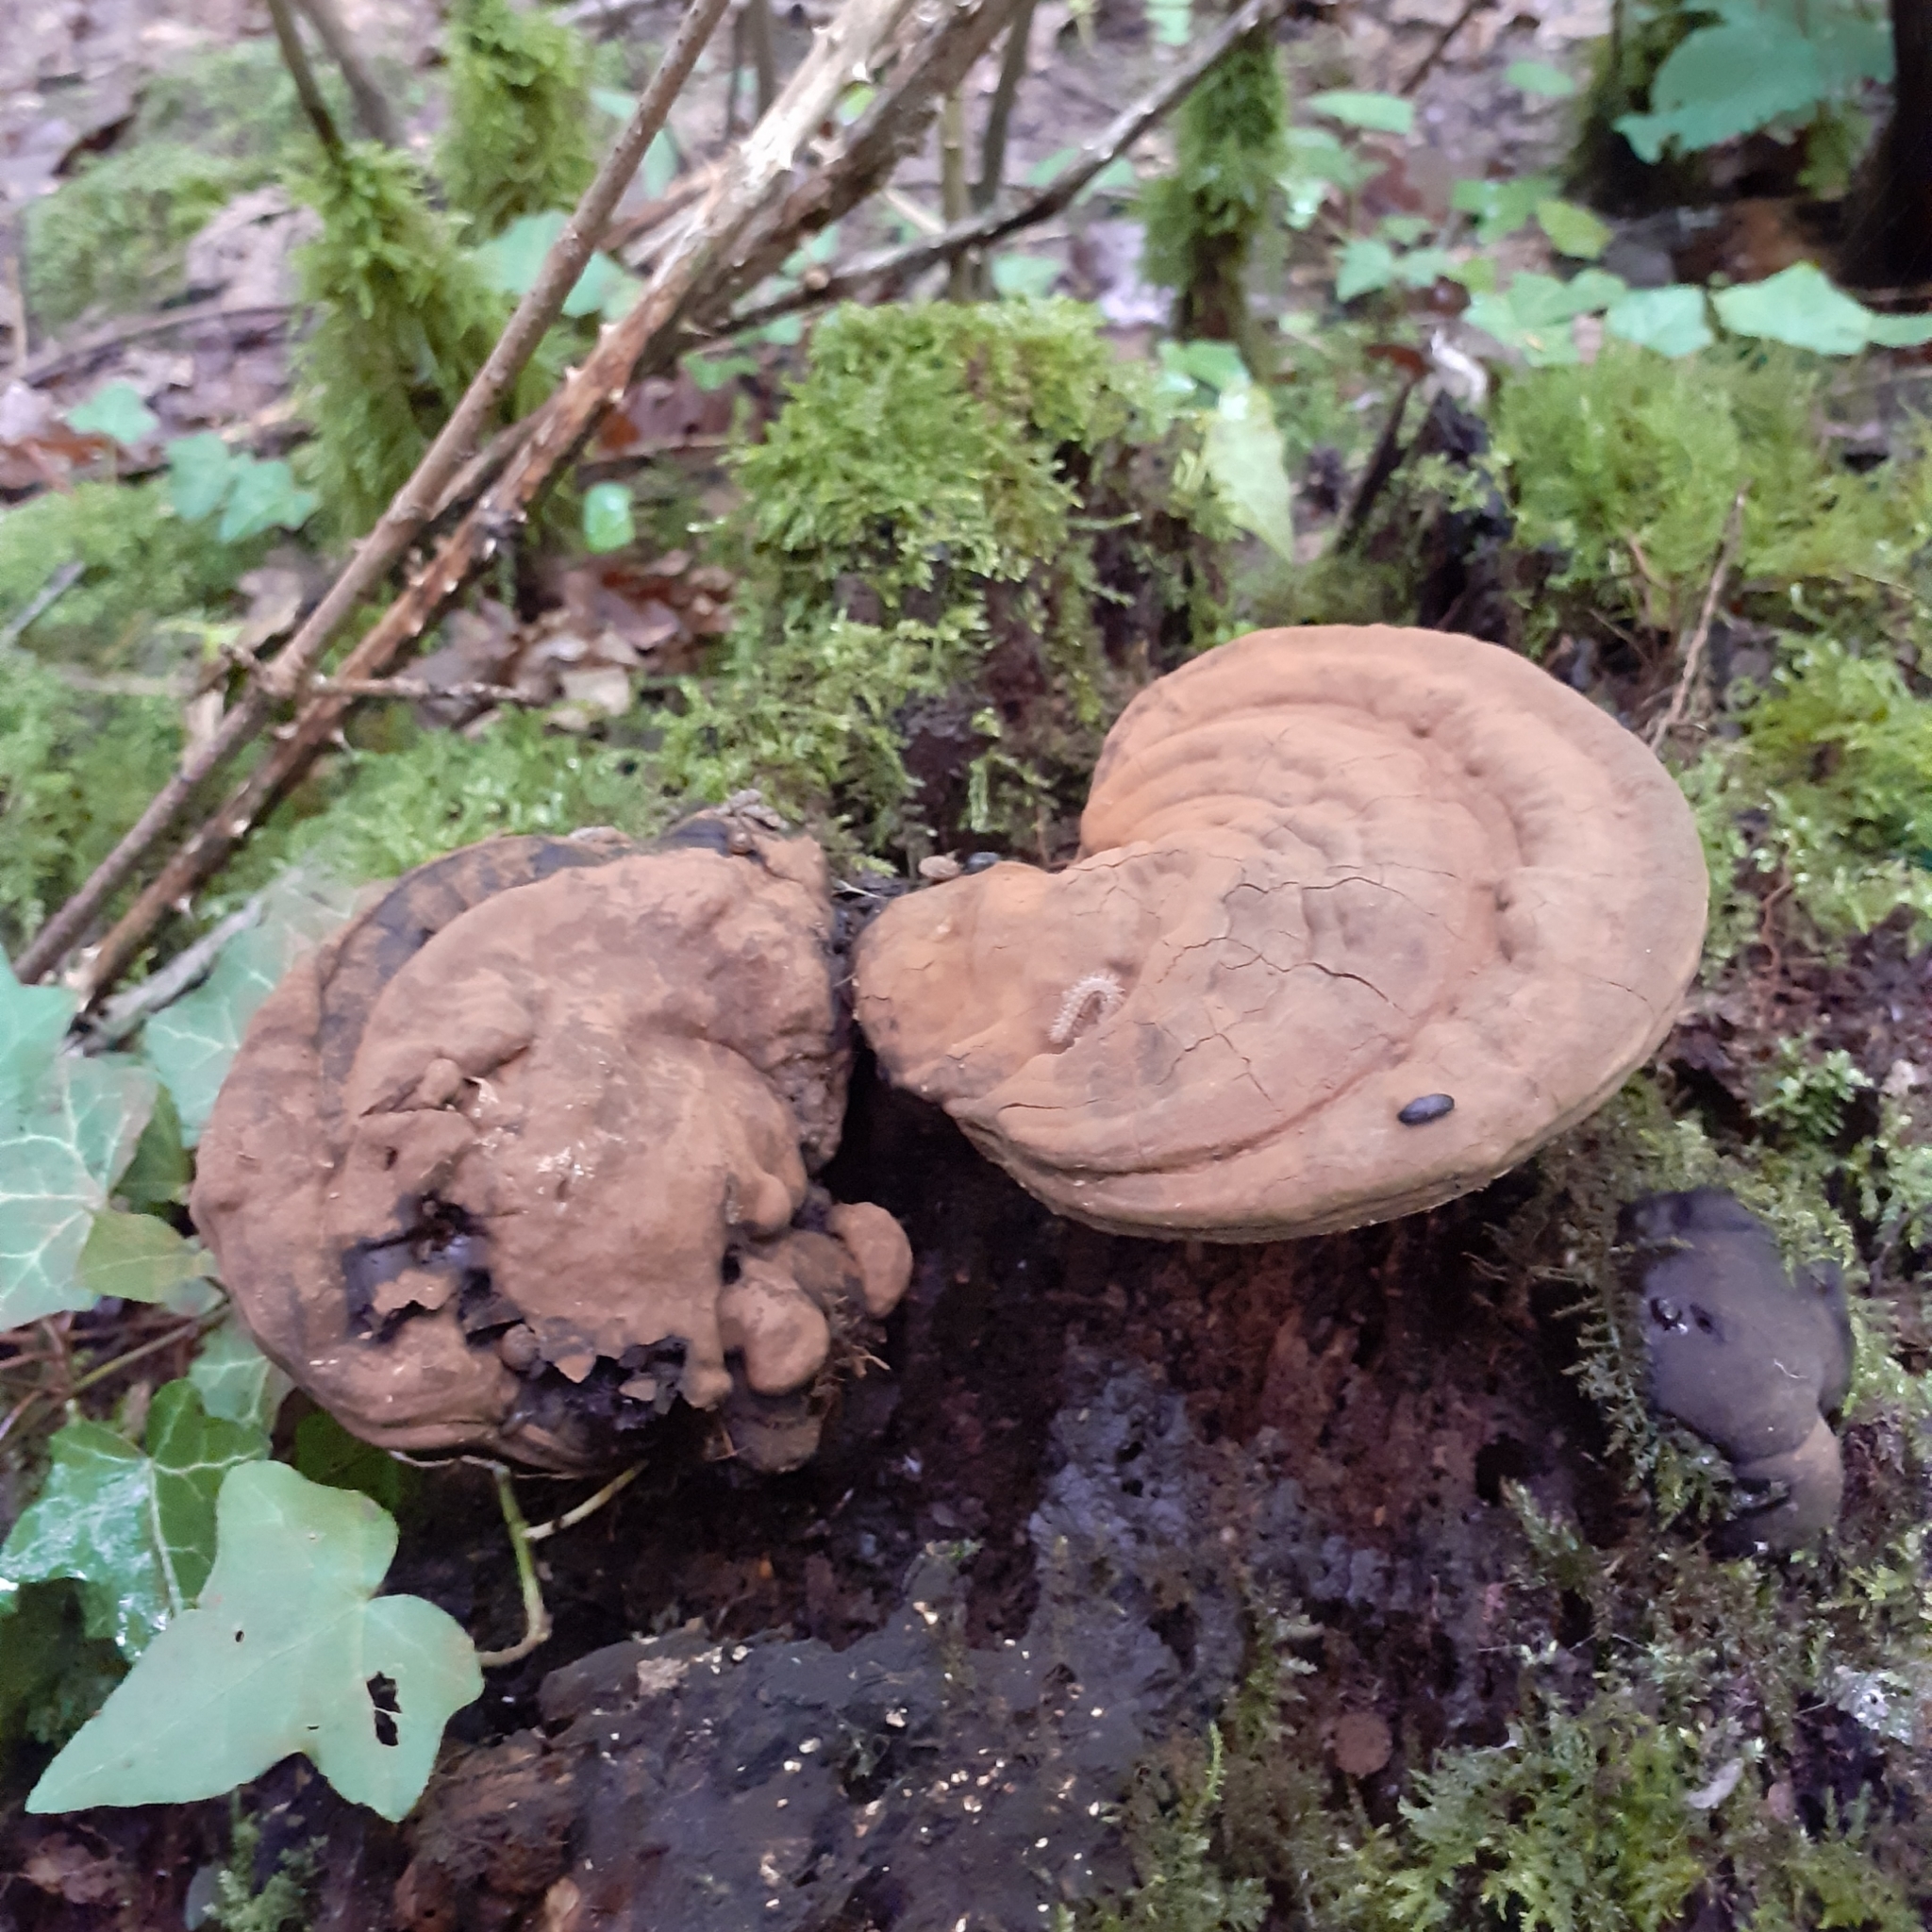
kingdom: Fungi
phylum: Basidiomycota
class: Agaricomycetes
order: Polyporales
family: Polyporaceae
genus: Ganoderma
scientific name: Ganoderma applanatum
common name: Artist's bracket
